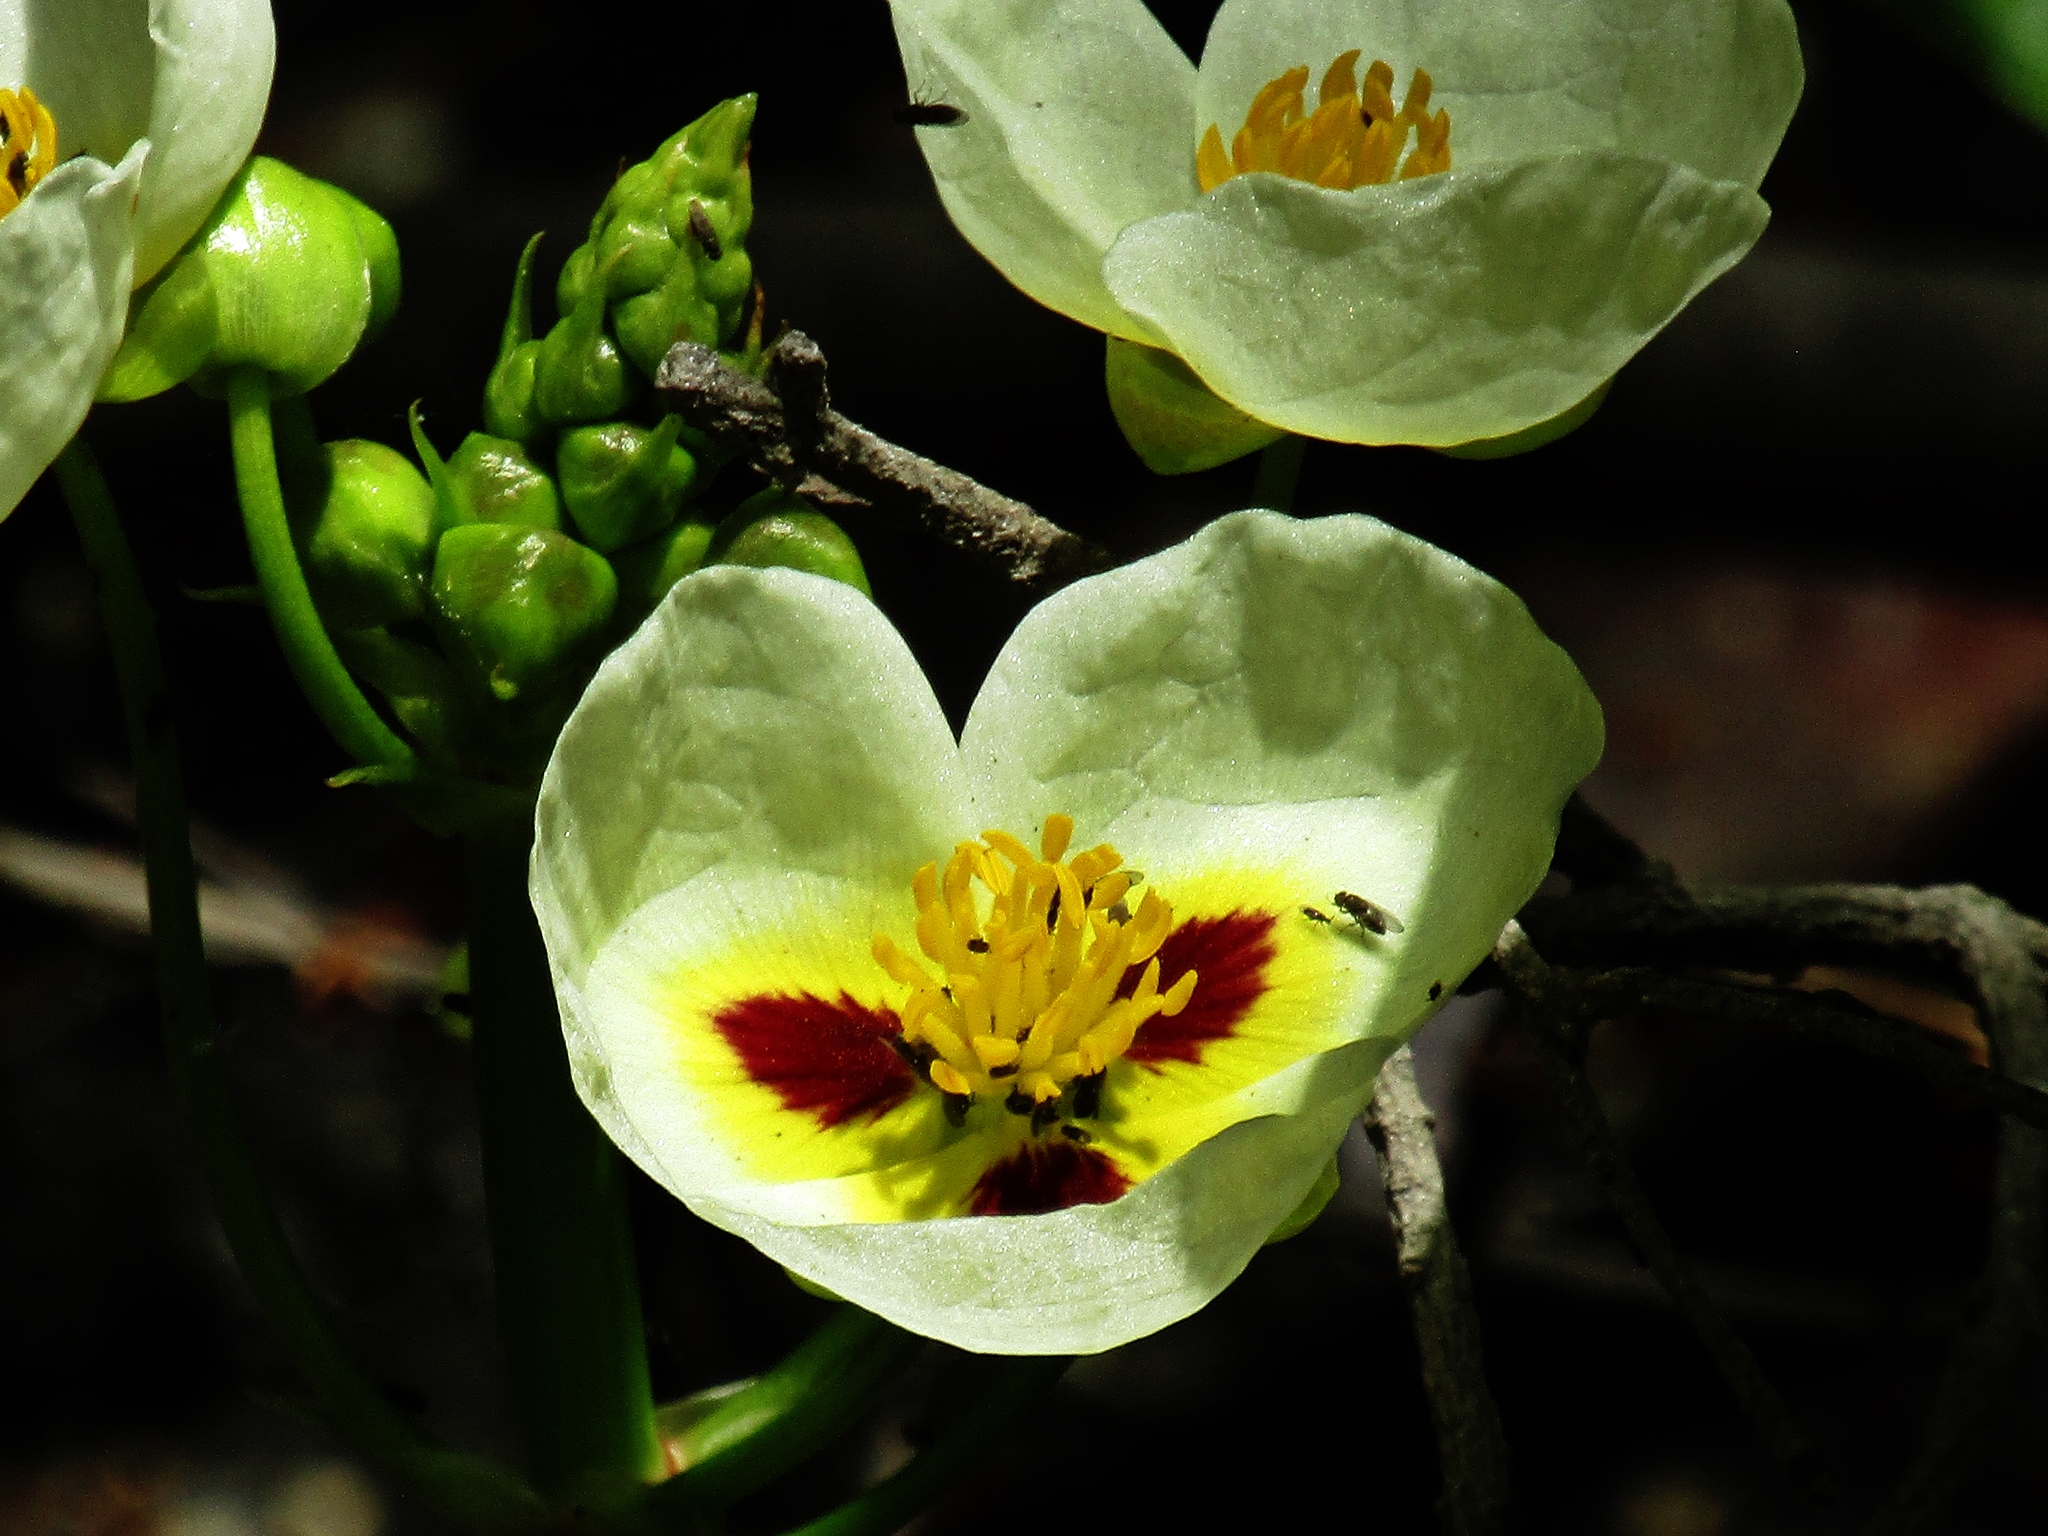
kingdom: Plantae
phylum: Tracheophyta
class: Liliopsida
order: Alismatales
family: Alismataceae
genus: Sagittaria
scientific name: Sagittaria montevidensis
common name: Giant arrowhead
